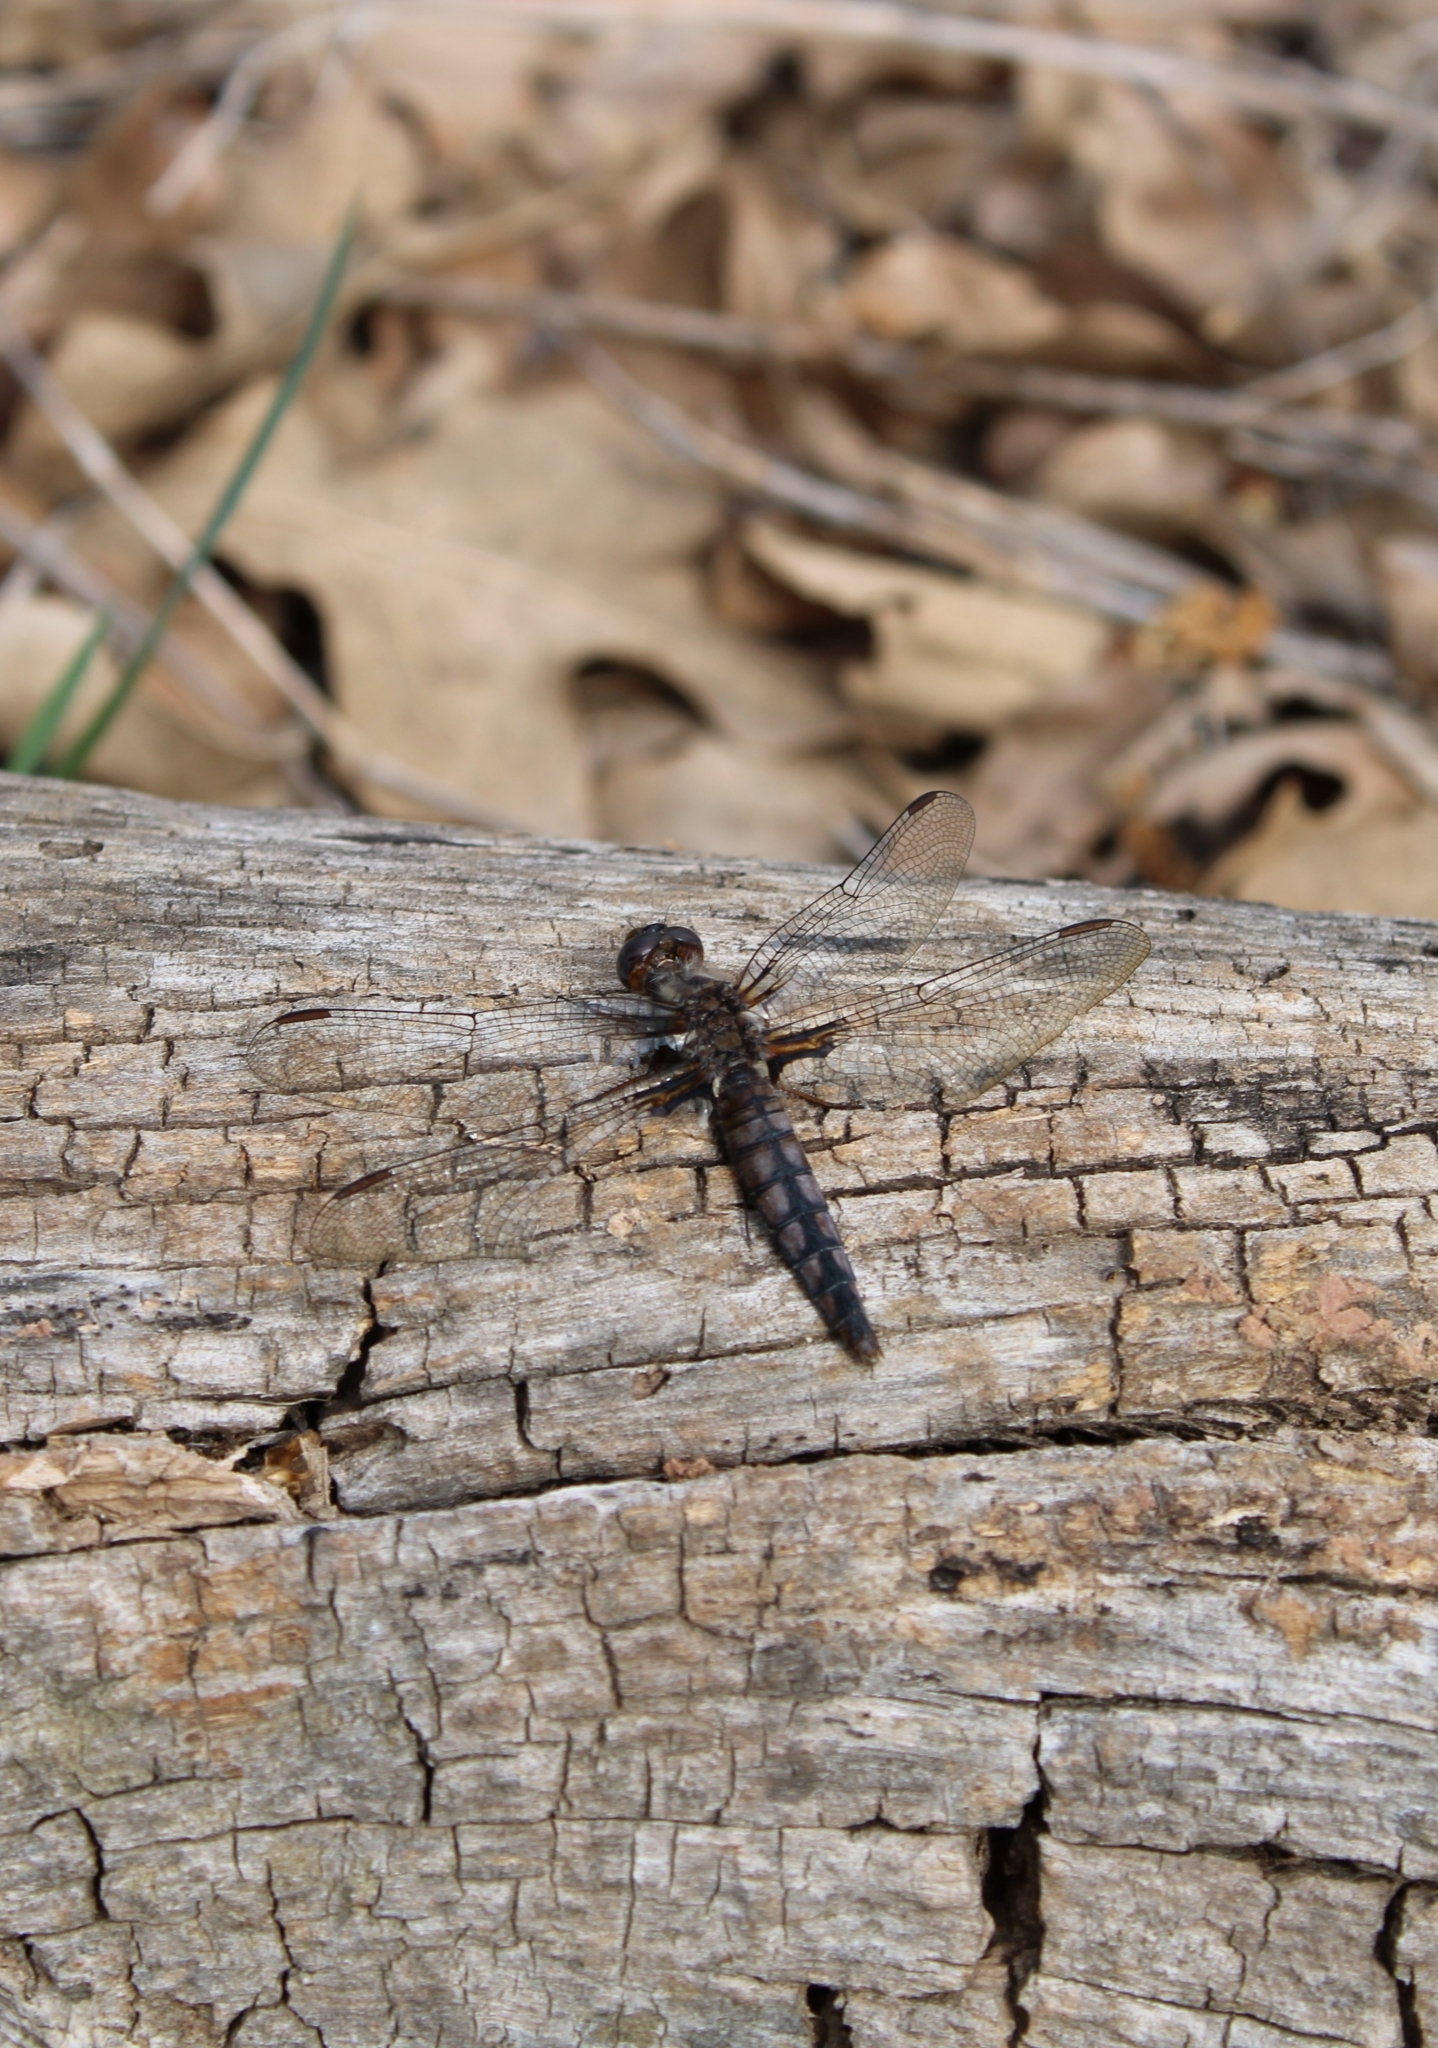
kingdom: Animalia
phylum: Arthropoda
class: Insecta
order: Odonata
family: Libellulidae
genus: Ladona
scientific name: Ladona deplanata
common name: Blue corporal
